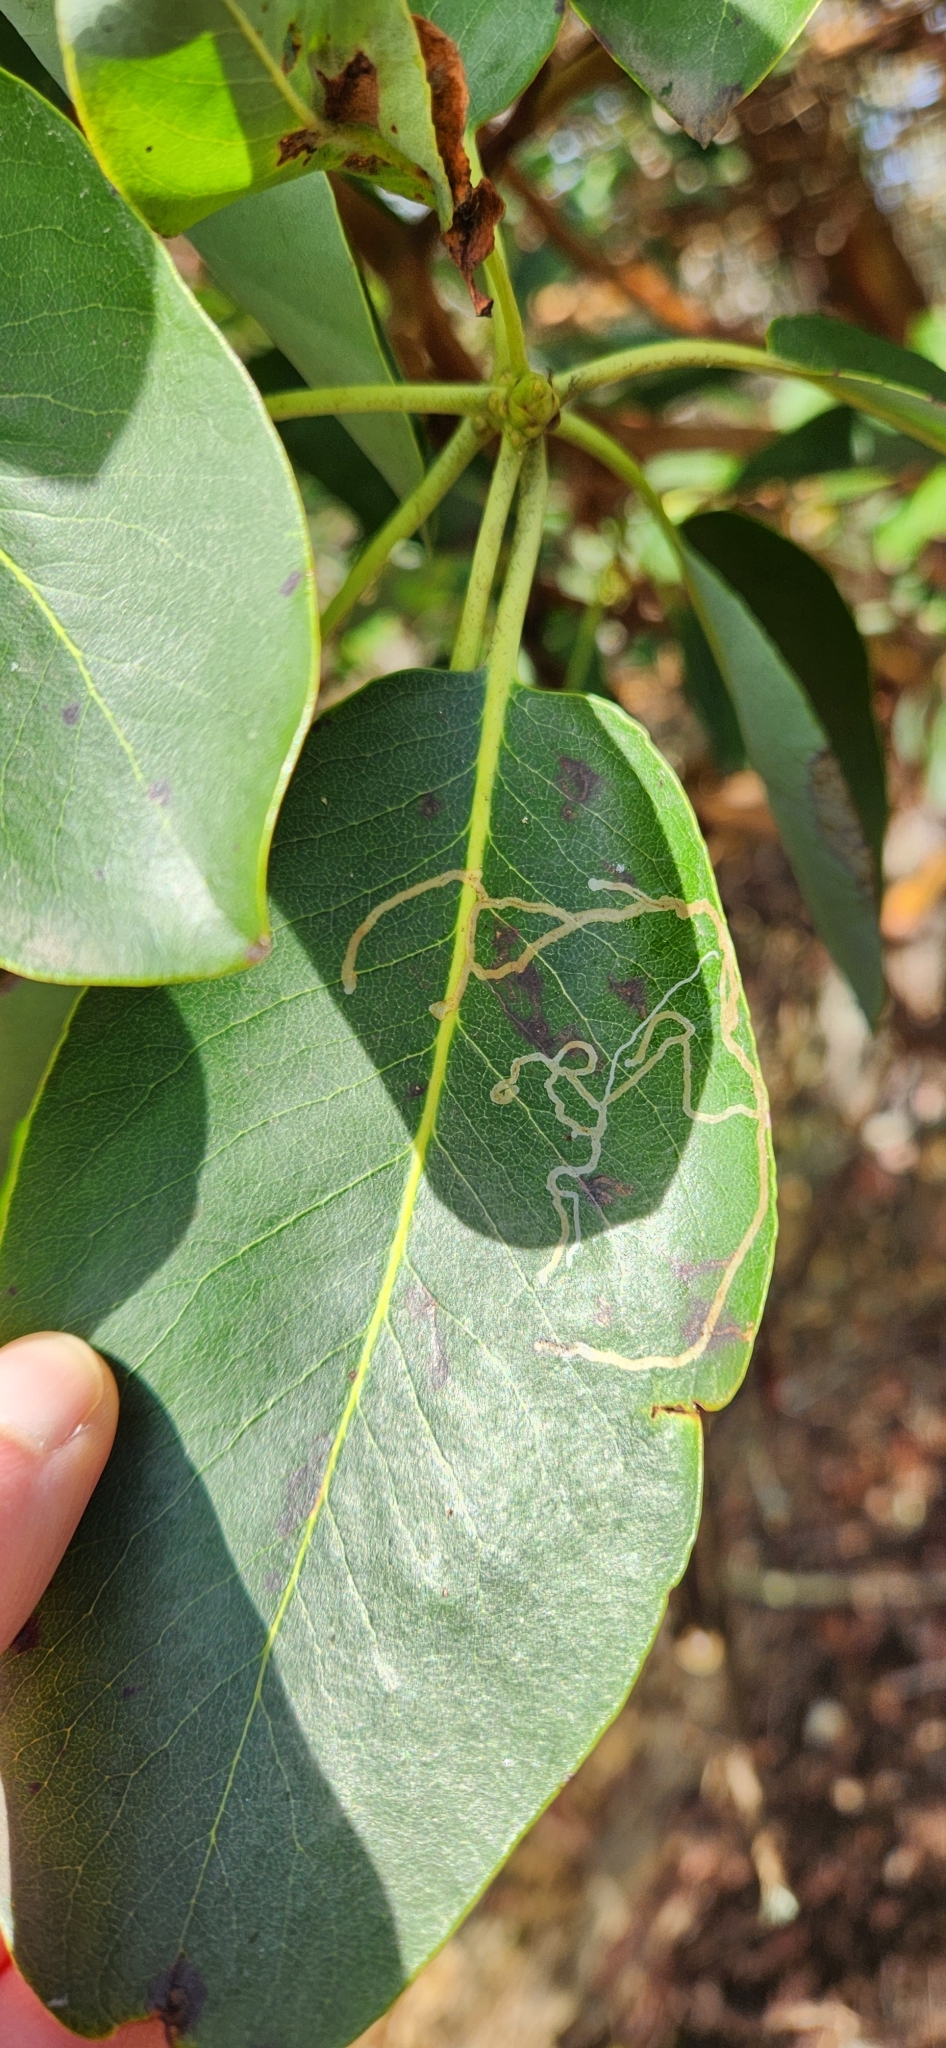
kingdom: Animalia
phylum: Arthropoda
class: Insecta
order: Lepidoptera
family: Gracillariidae
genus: Marmara
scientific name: Marmara arbutiella
